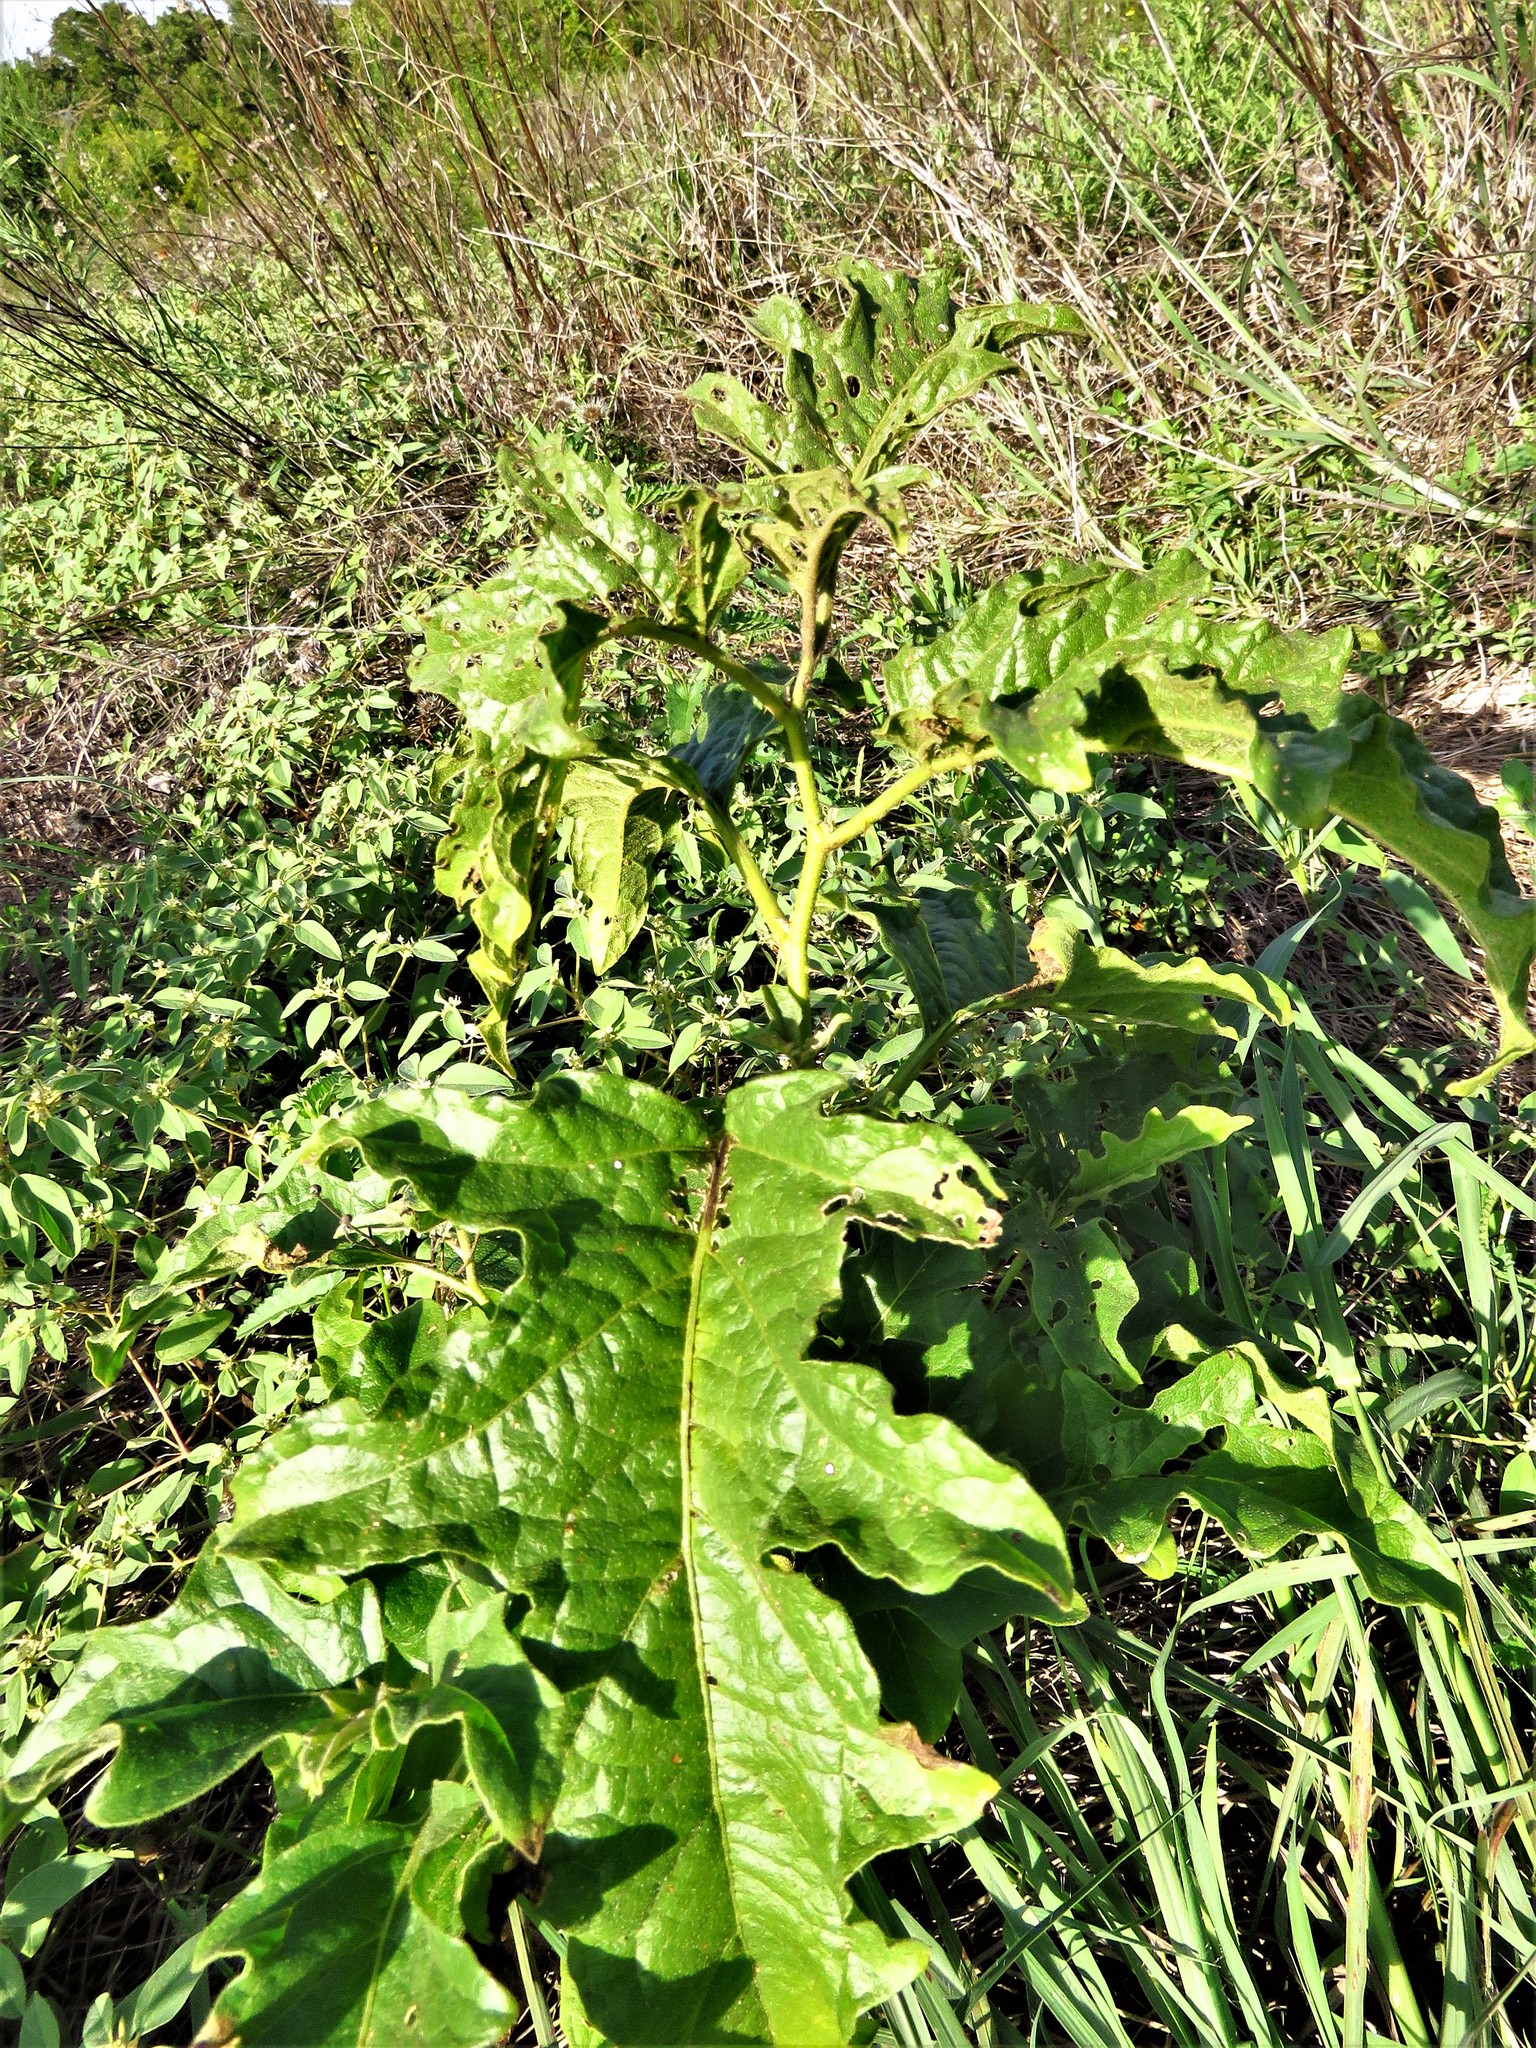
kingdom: Plantae
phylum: Tracheophyta
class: Magnoliopsida
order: Solanales
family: Solanaceae
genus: Solanum
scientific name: Solanum dimidiatum
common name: Carolina horse-nettle
